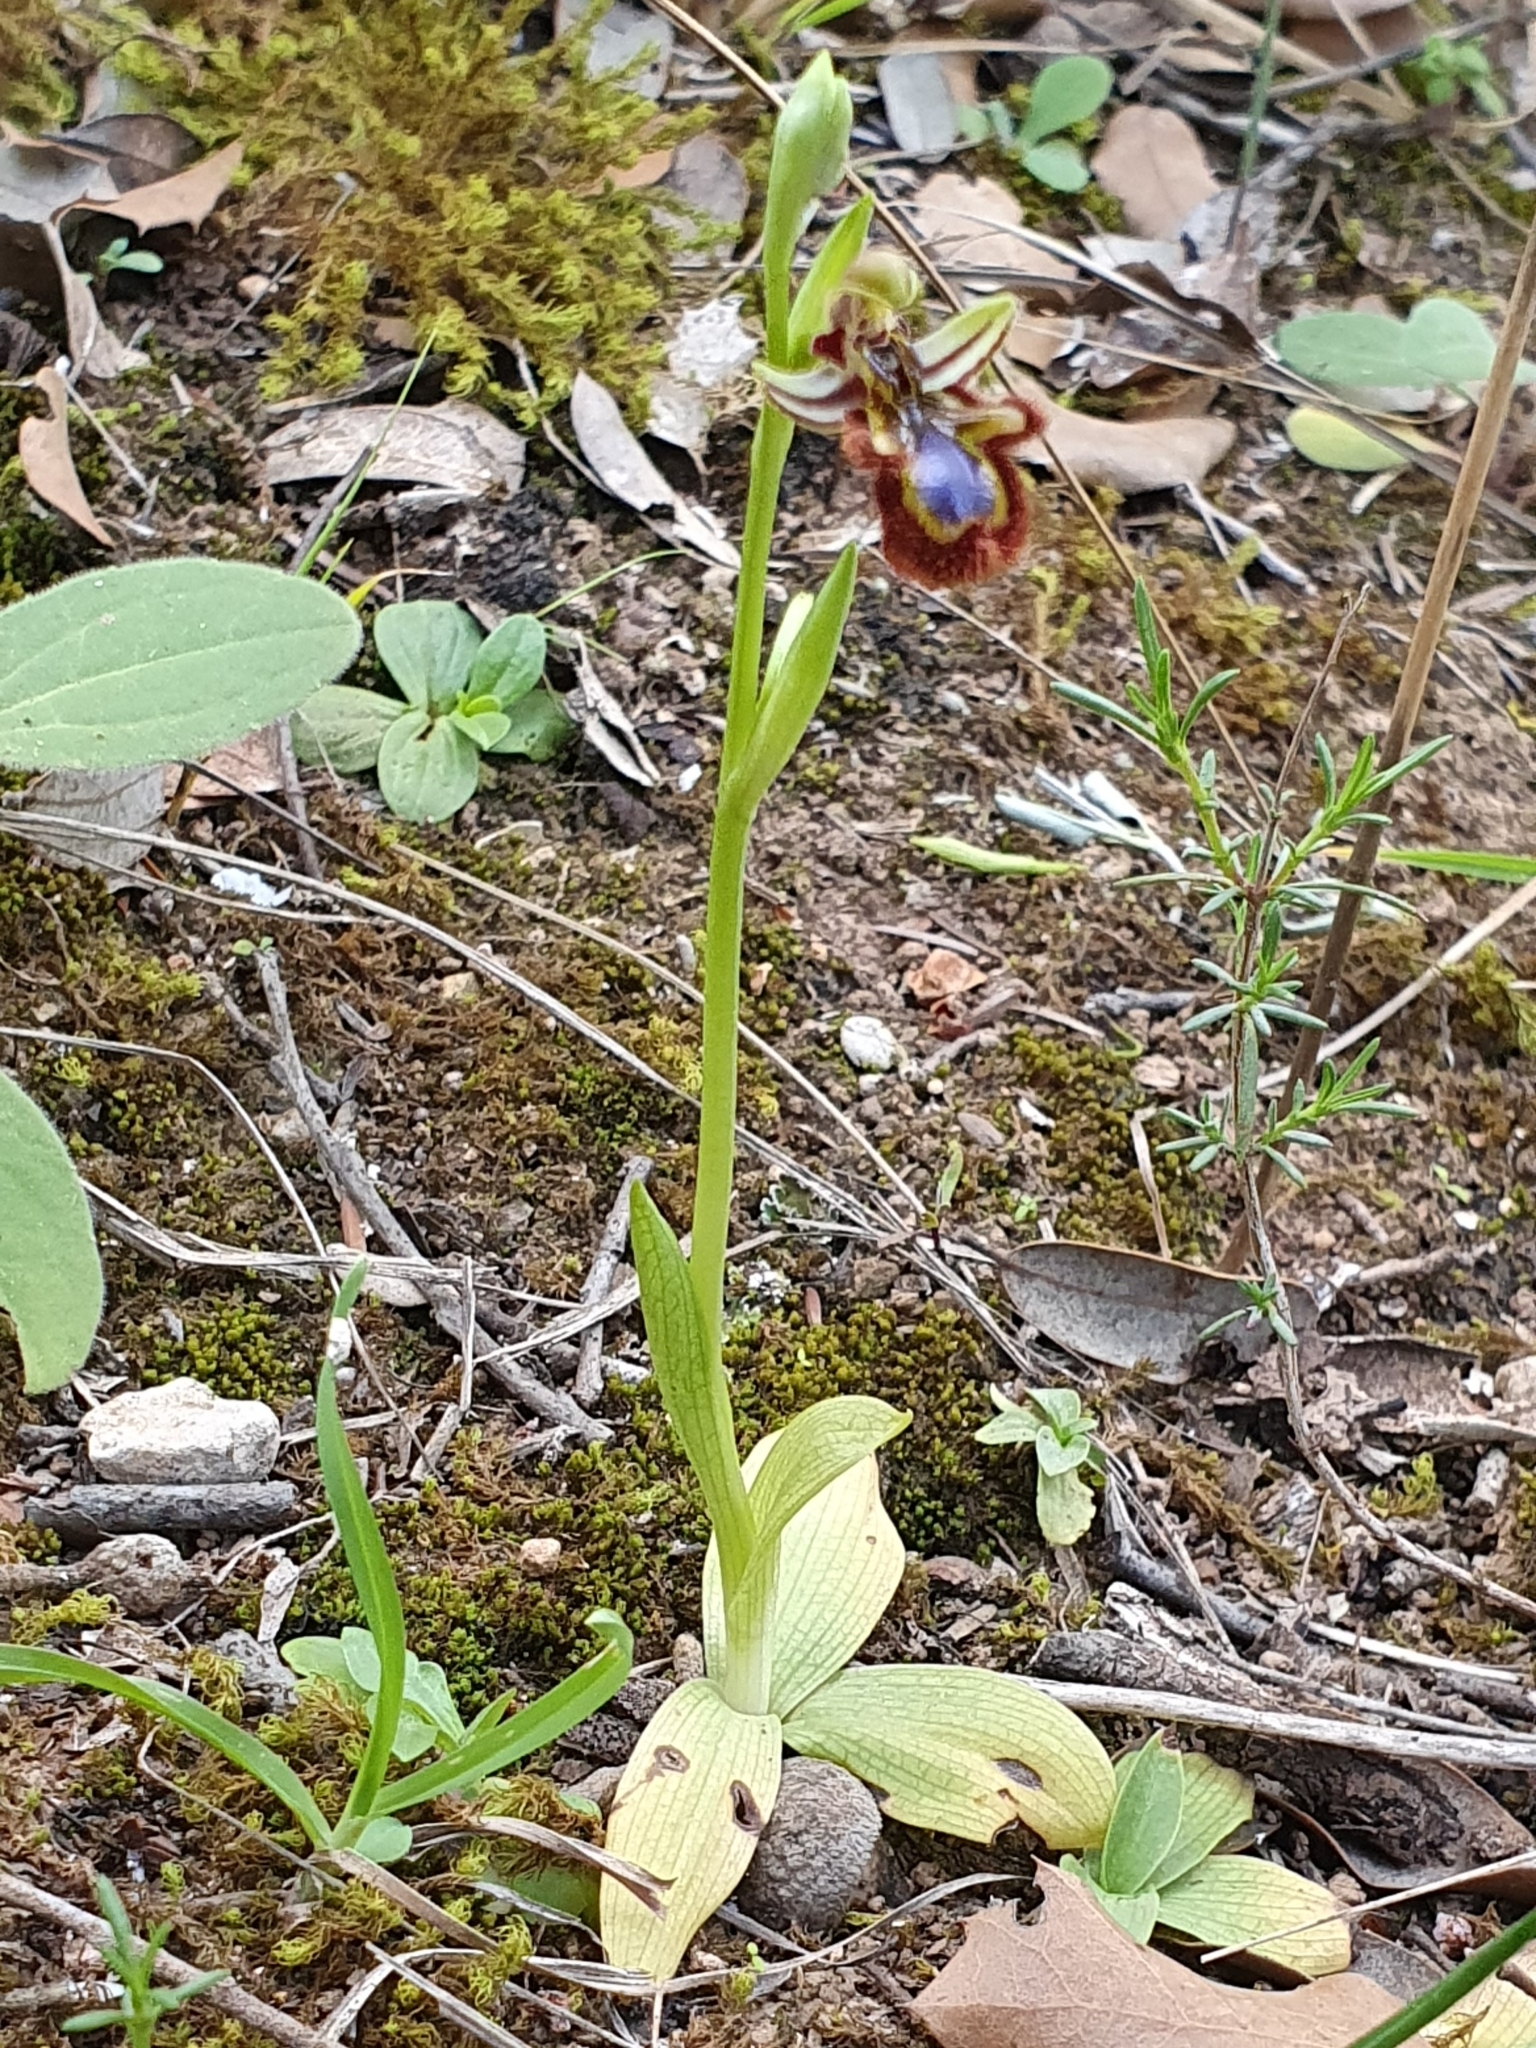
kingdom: Plantae
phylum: Tracheophyta
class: Liliopsida
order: Asparagales
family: Orchidaceae
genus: Ophrys
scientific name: Ophrys speculum
